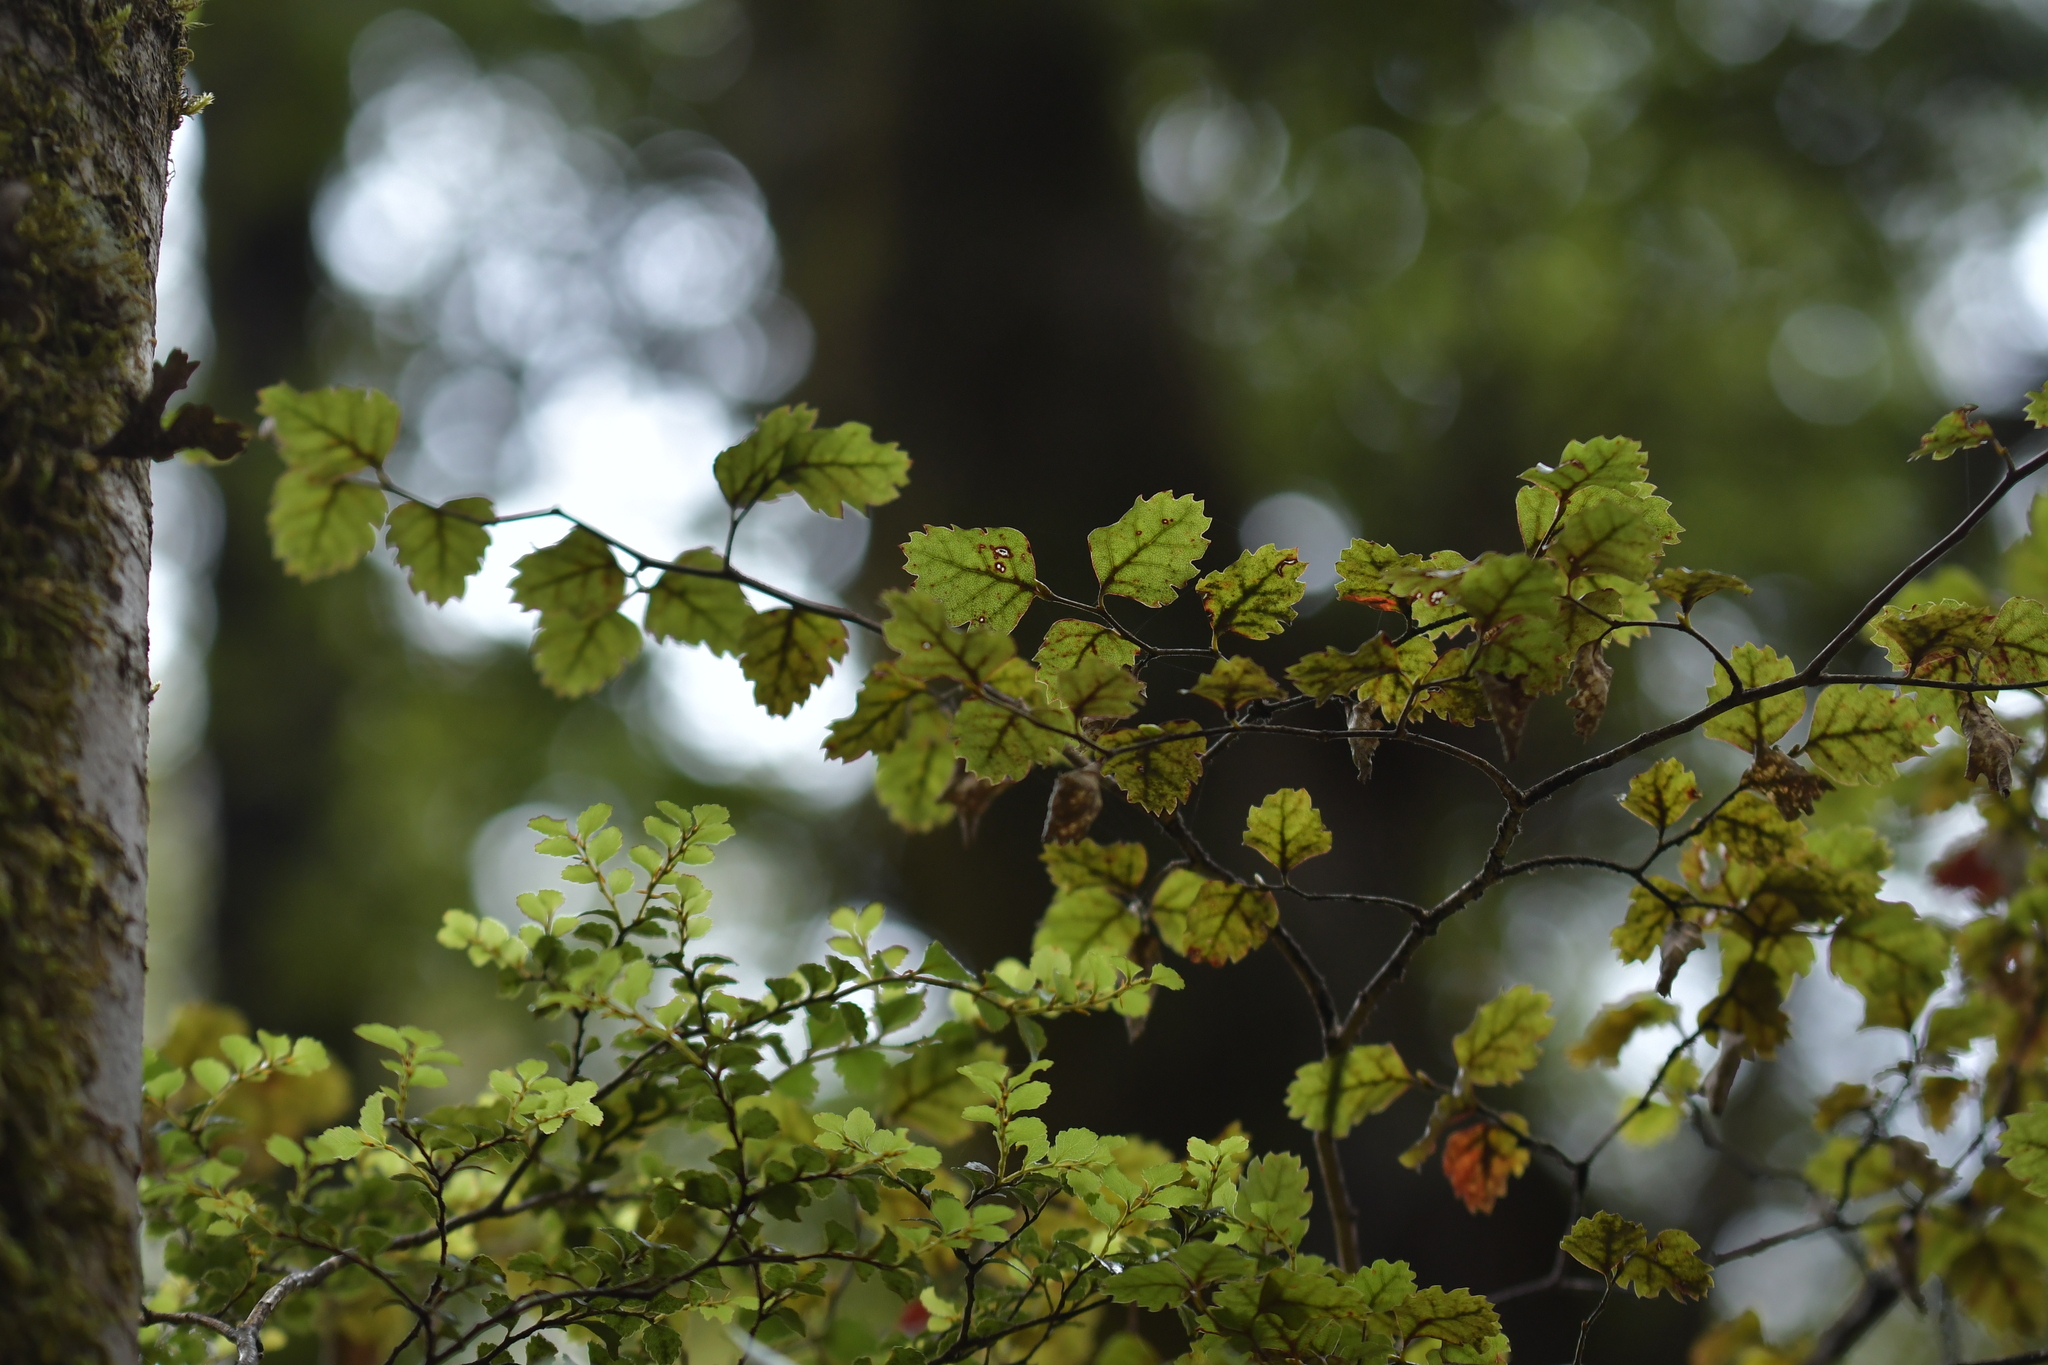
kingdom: Plantae
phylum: Tracheophyta
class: Magnoliopsida
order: Fagales
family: Nothofagaceae
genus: Nothofagus
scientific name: Nothofagus fusca
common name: Red beech
